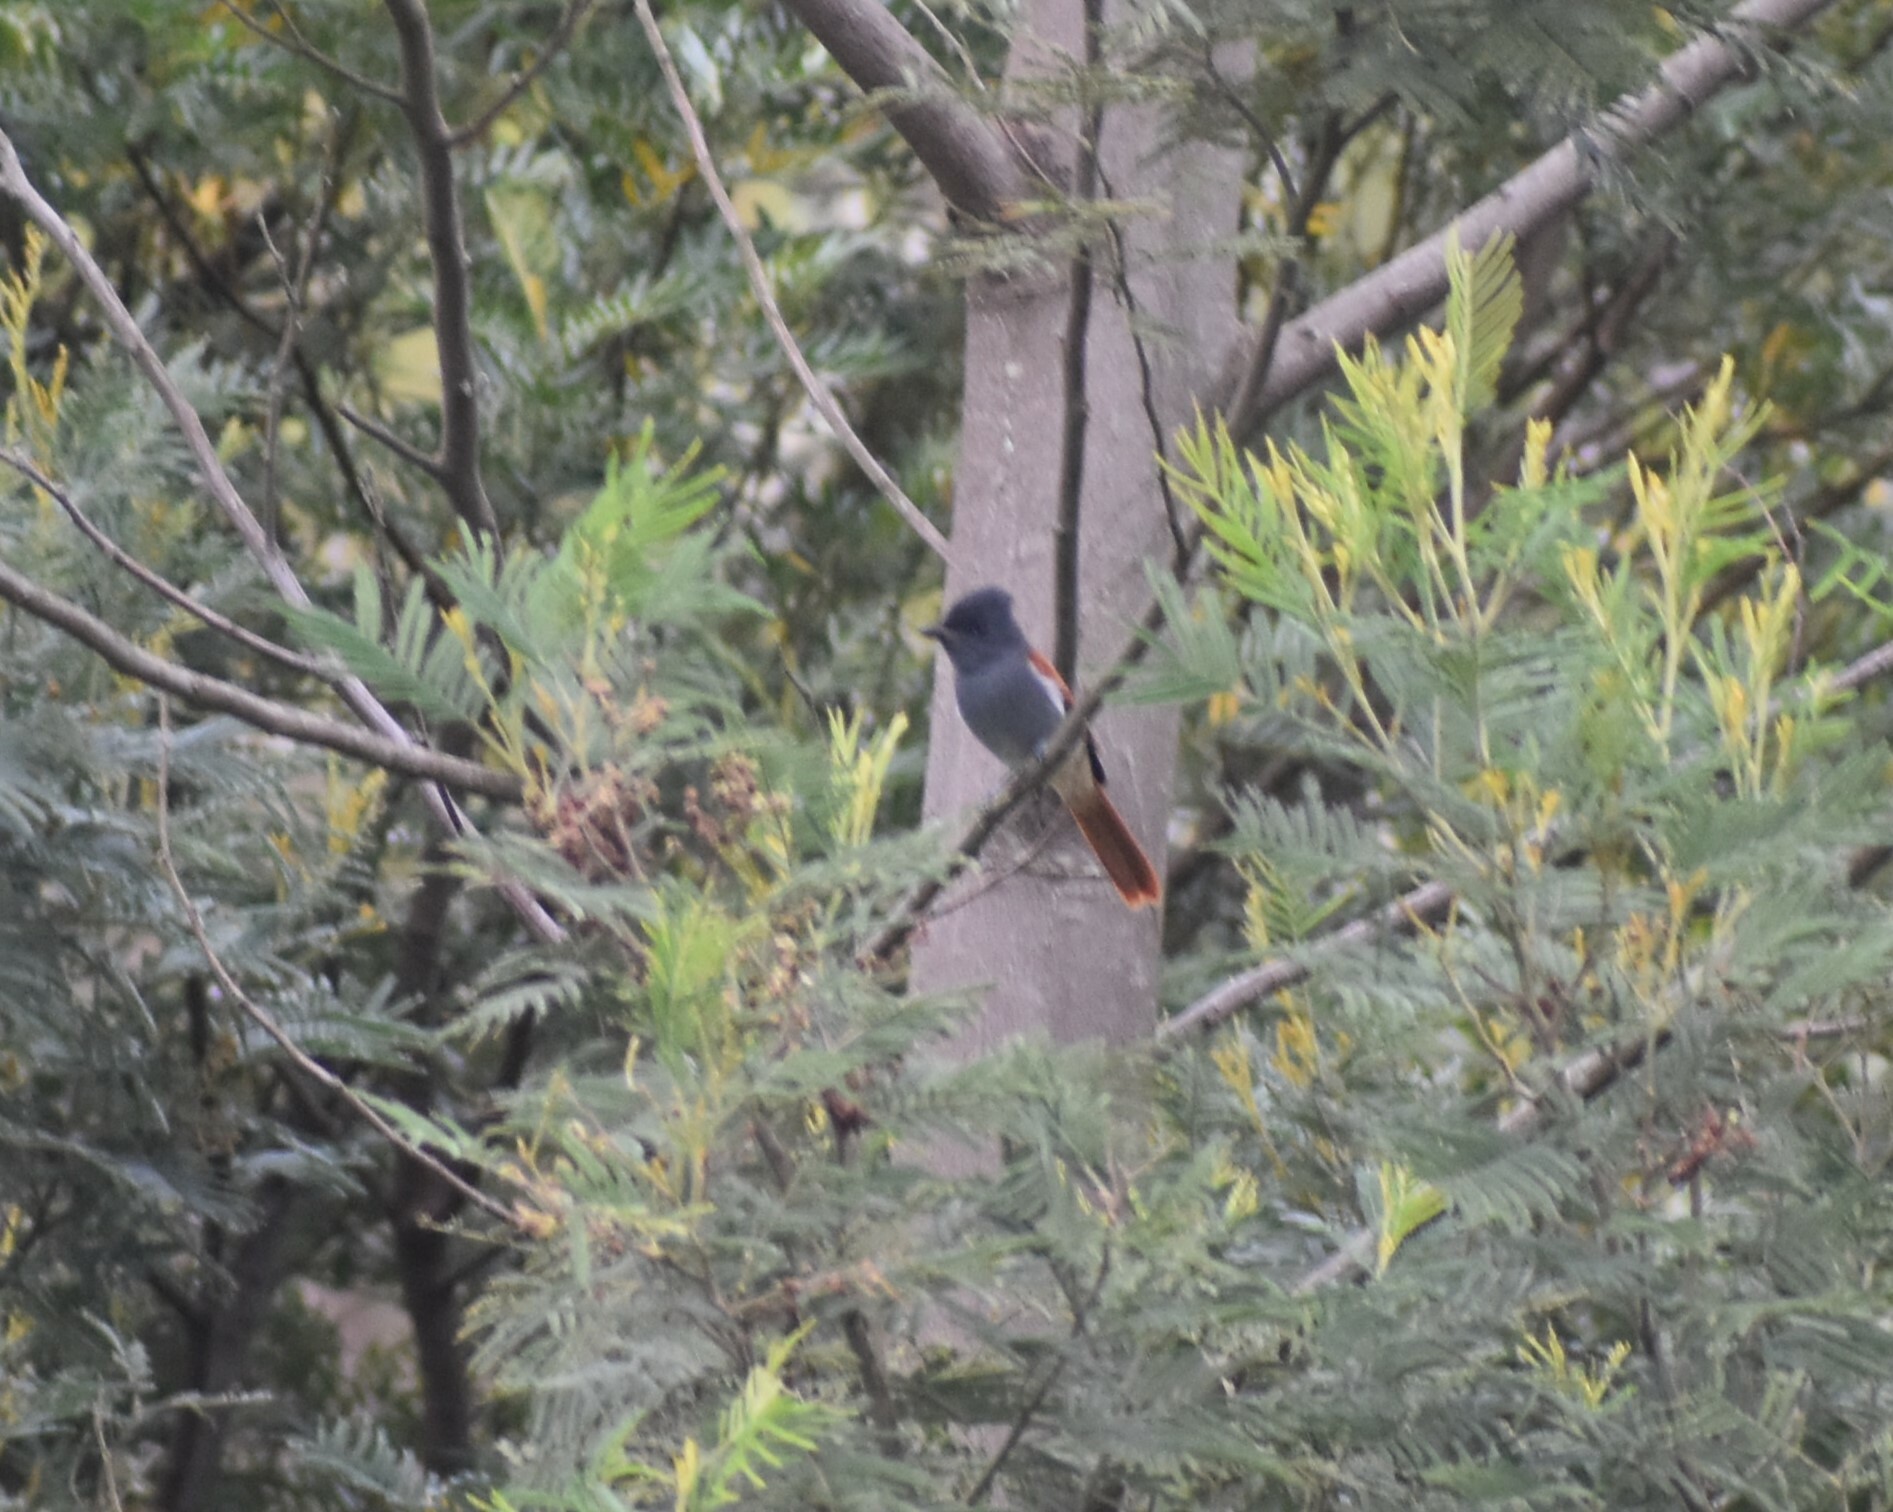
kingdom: Animalia
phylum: Chordata
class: Aves
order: Passeriformes
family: Monarchidae
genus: Terpsiphone
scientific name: Terpsiphone viridis
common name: African paradise flycatcher
